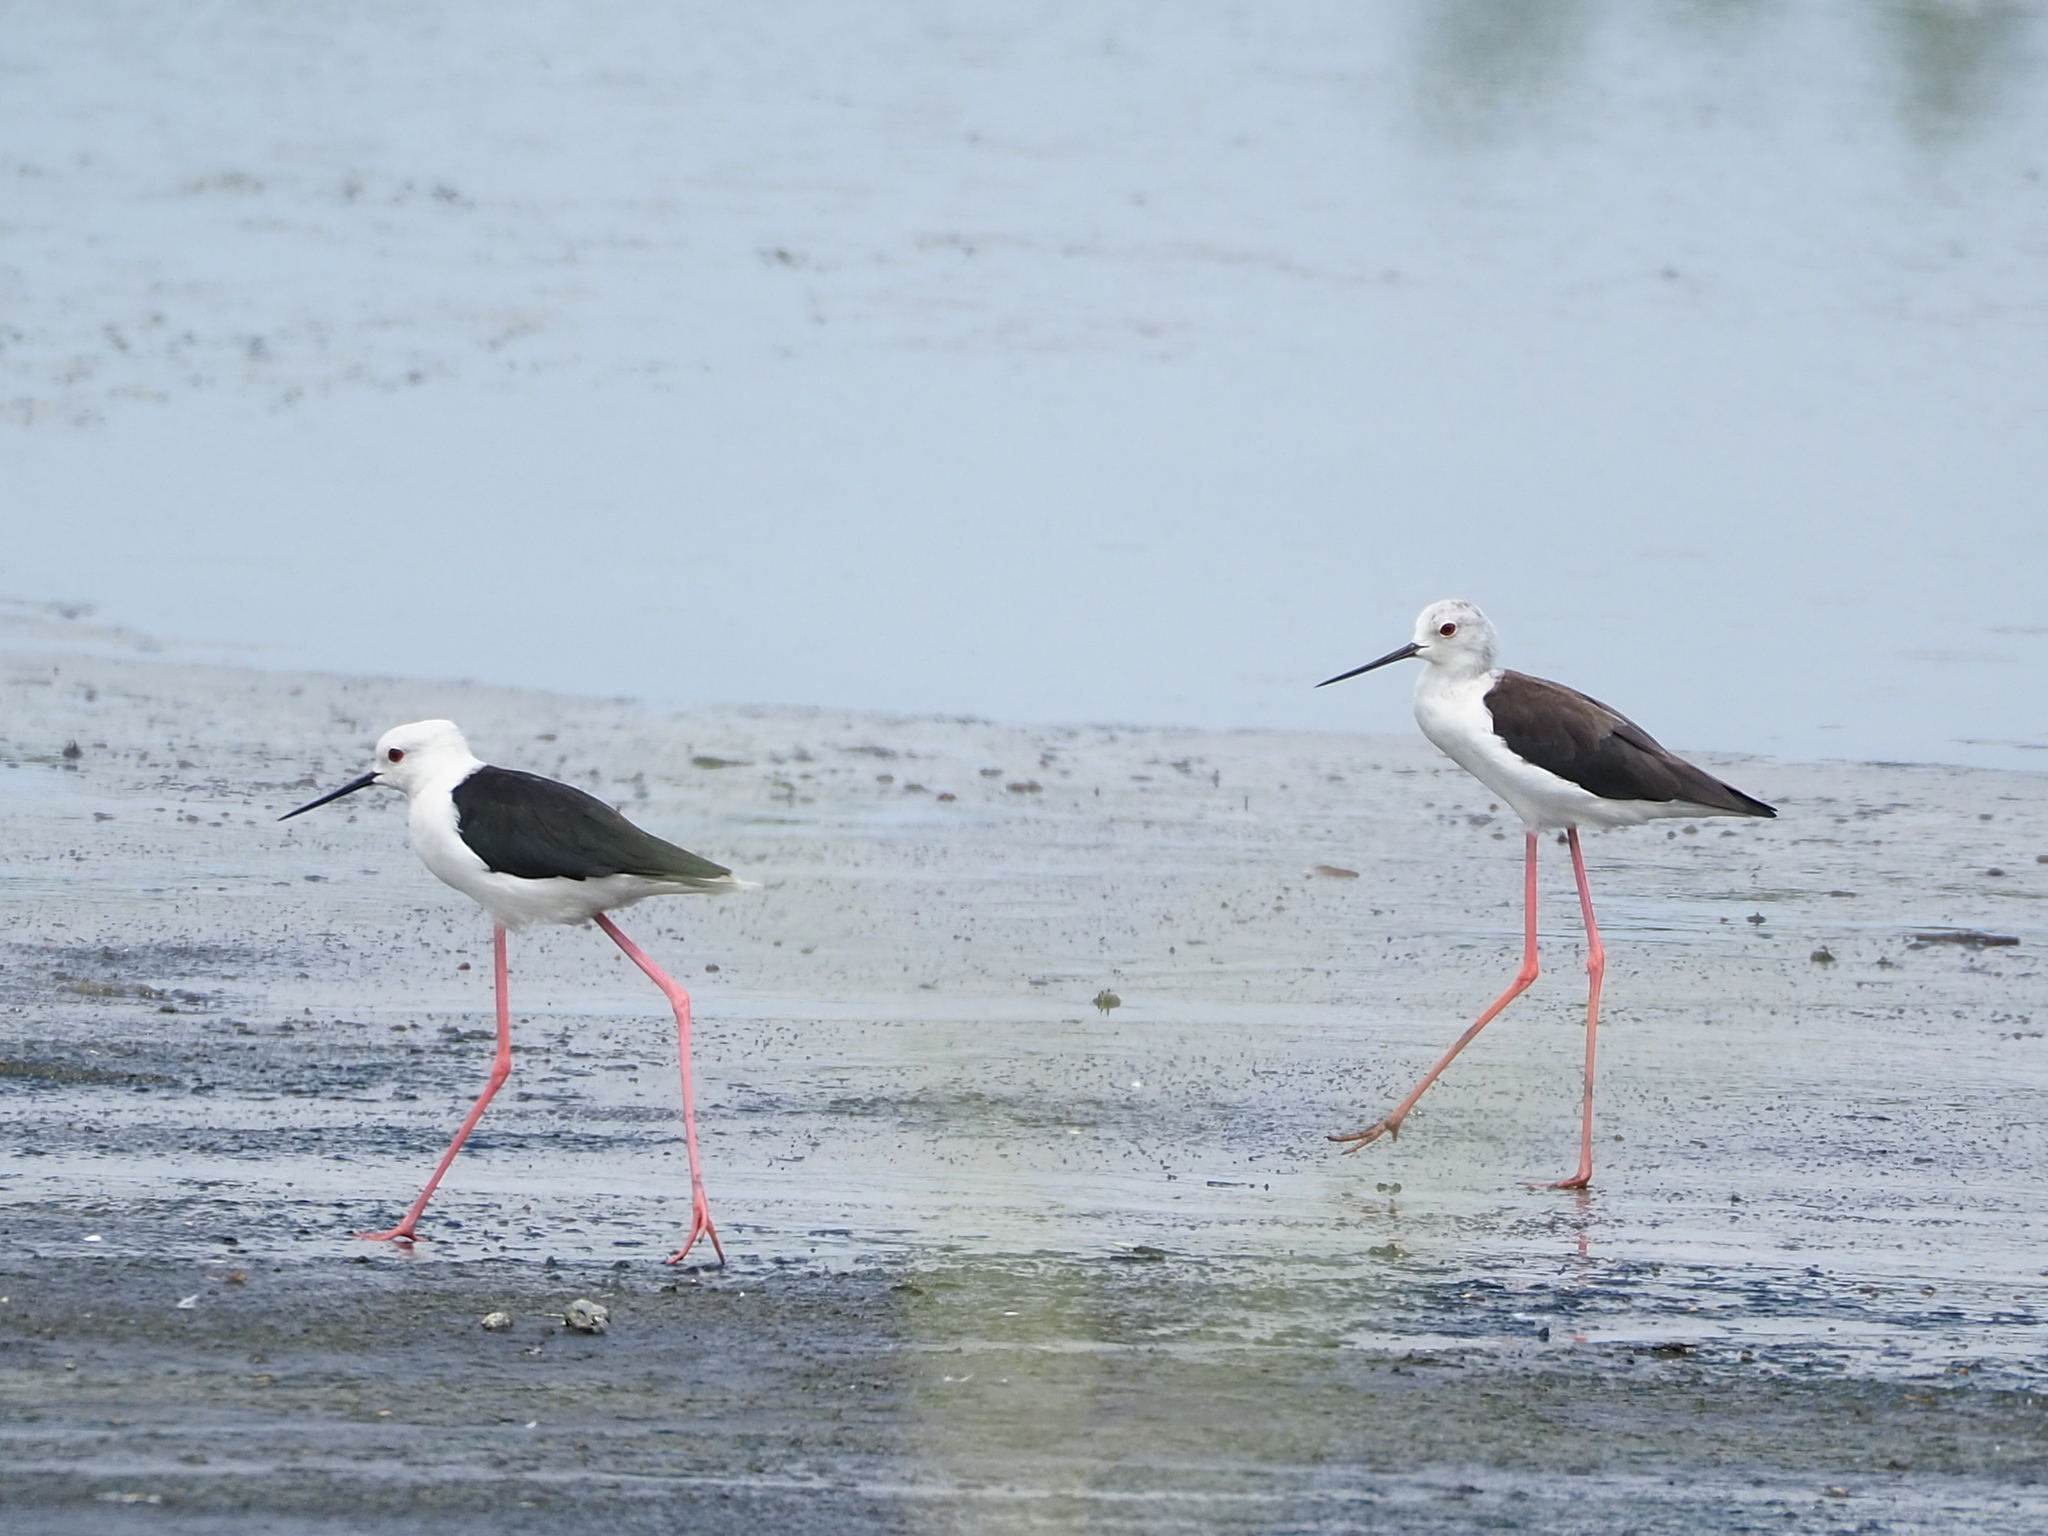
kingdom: Animalia
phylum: Chordata
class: Aves
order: Charadriiformes
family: Recurvirostridae
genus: Himantopus
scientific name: Himantopus himantopus
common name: Black-winged stilt
